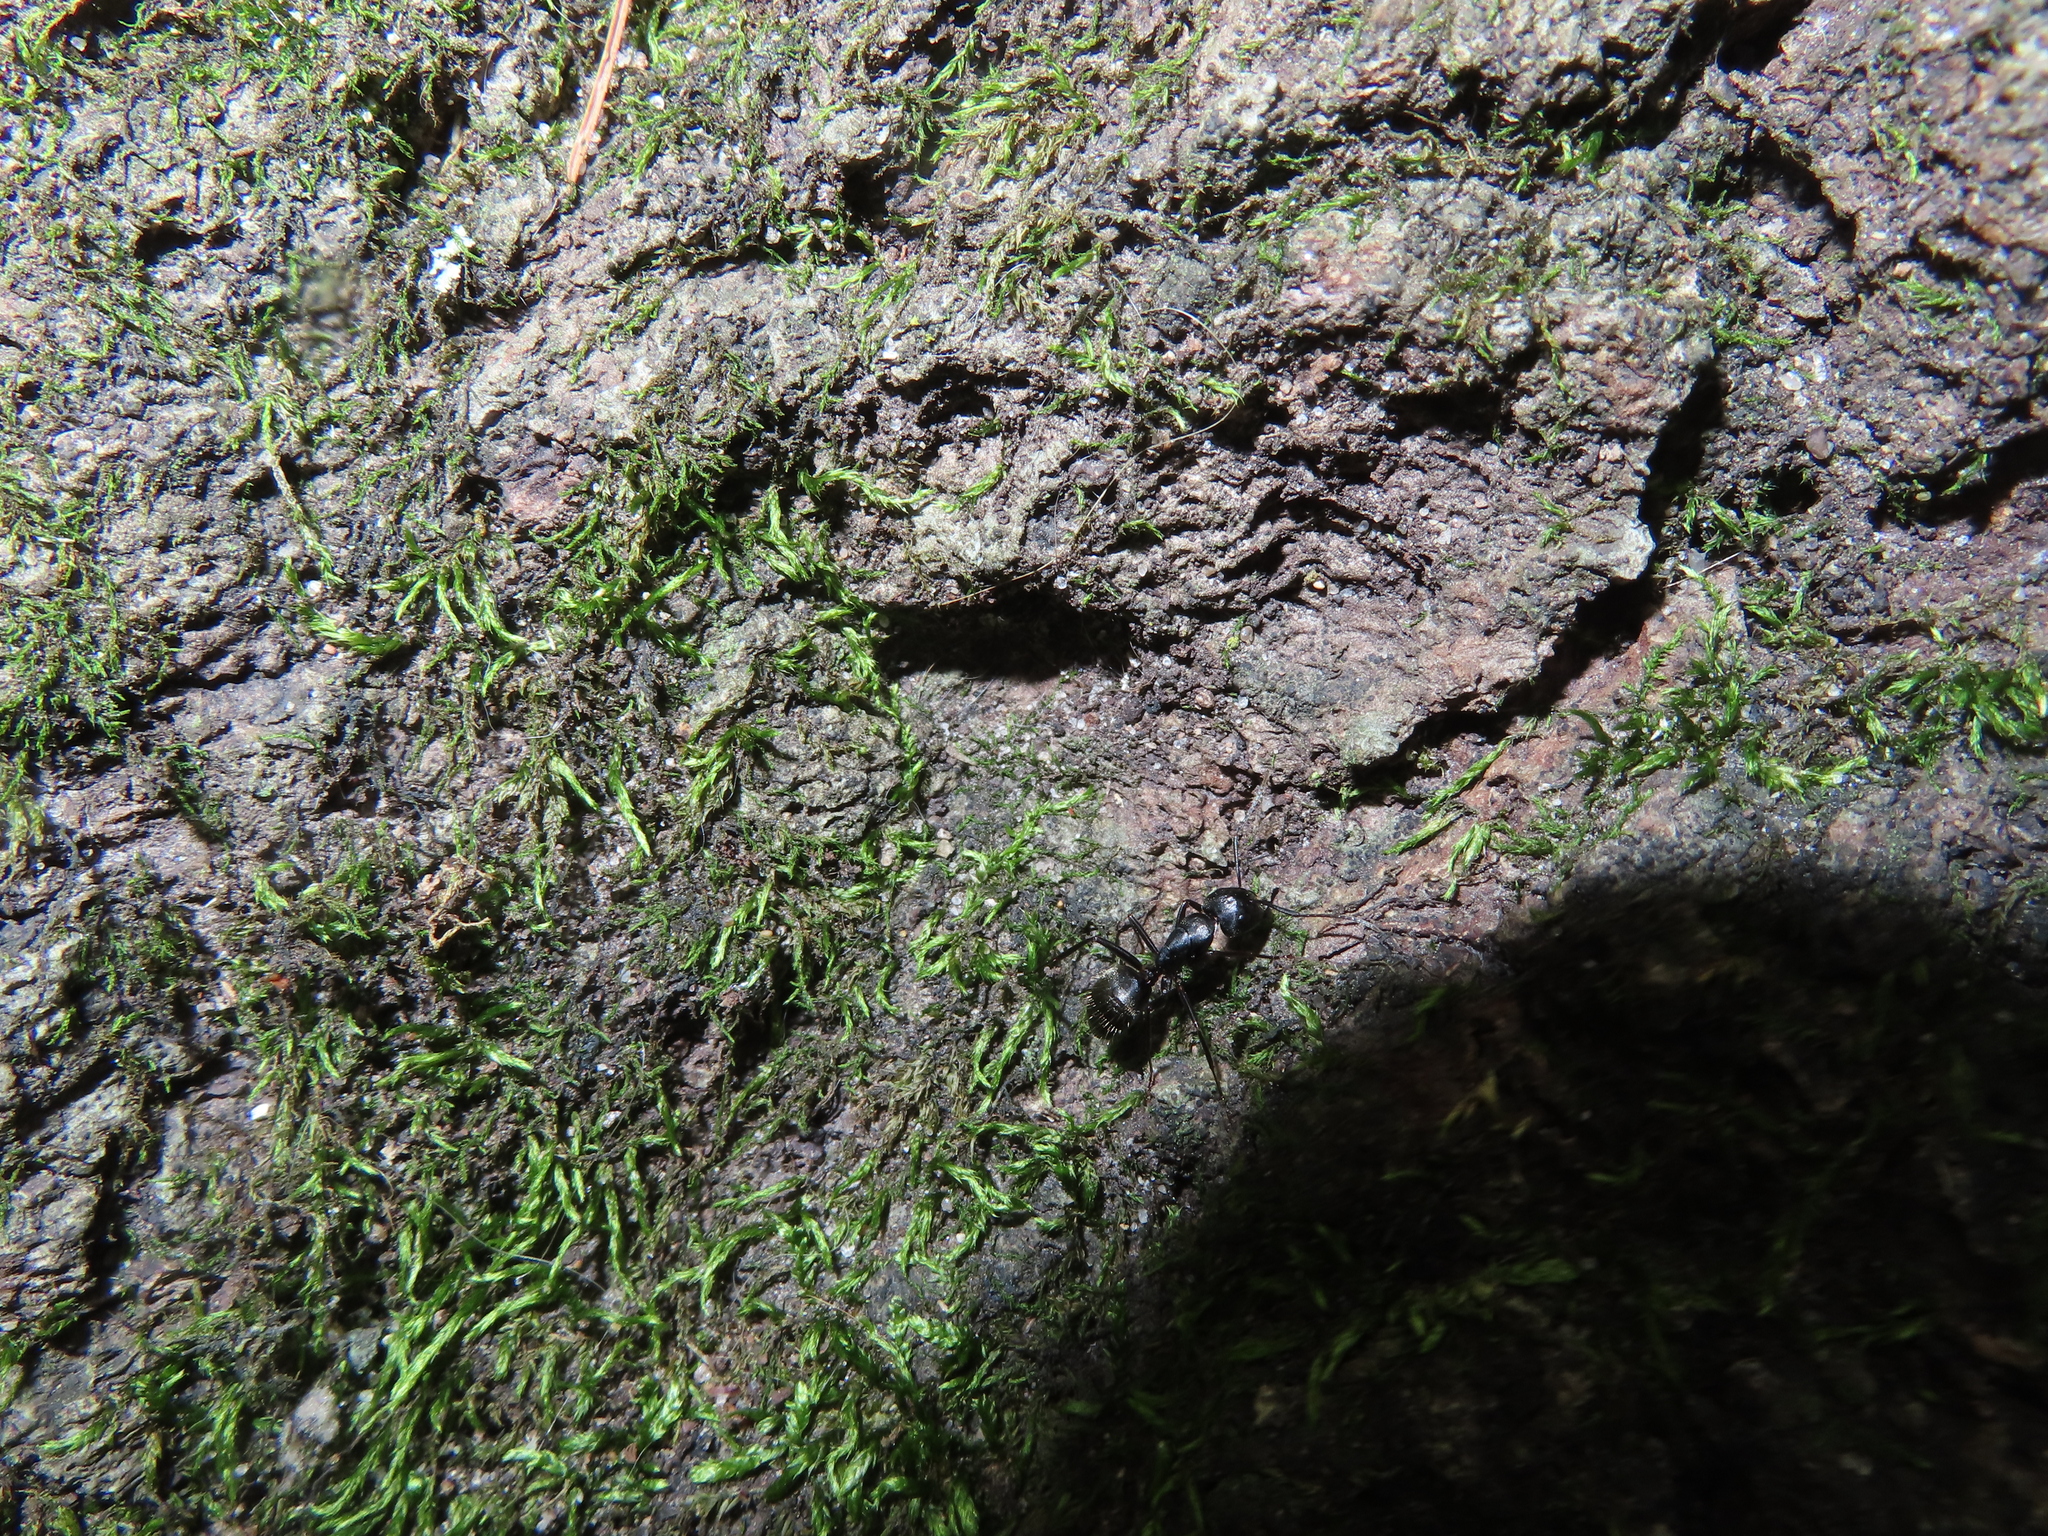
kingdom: Animalia
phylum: Arthropoda
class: Insecta
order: Hymenoptera
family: Formicidae
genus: Camponotus
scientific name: Camponotus pennsylvanicus
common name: Black carpenter ant
